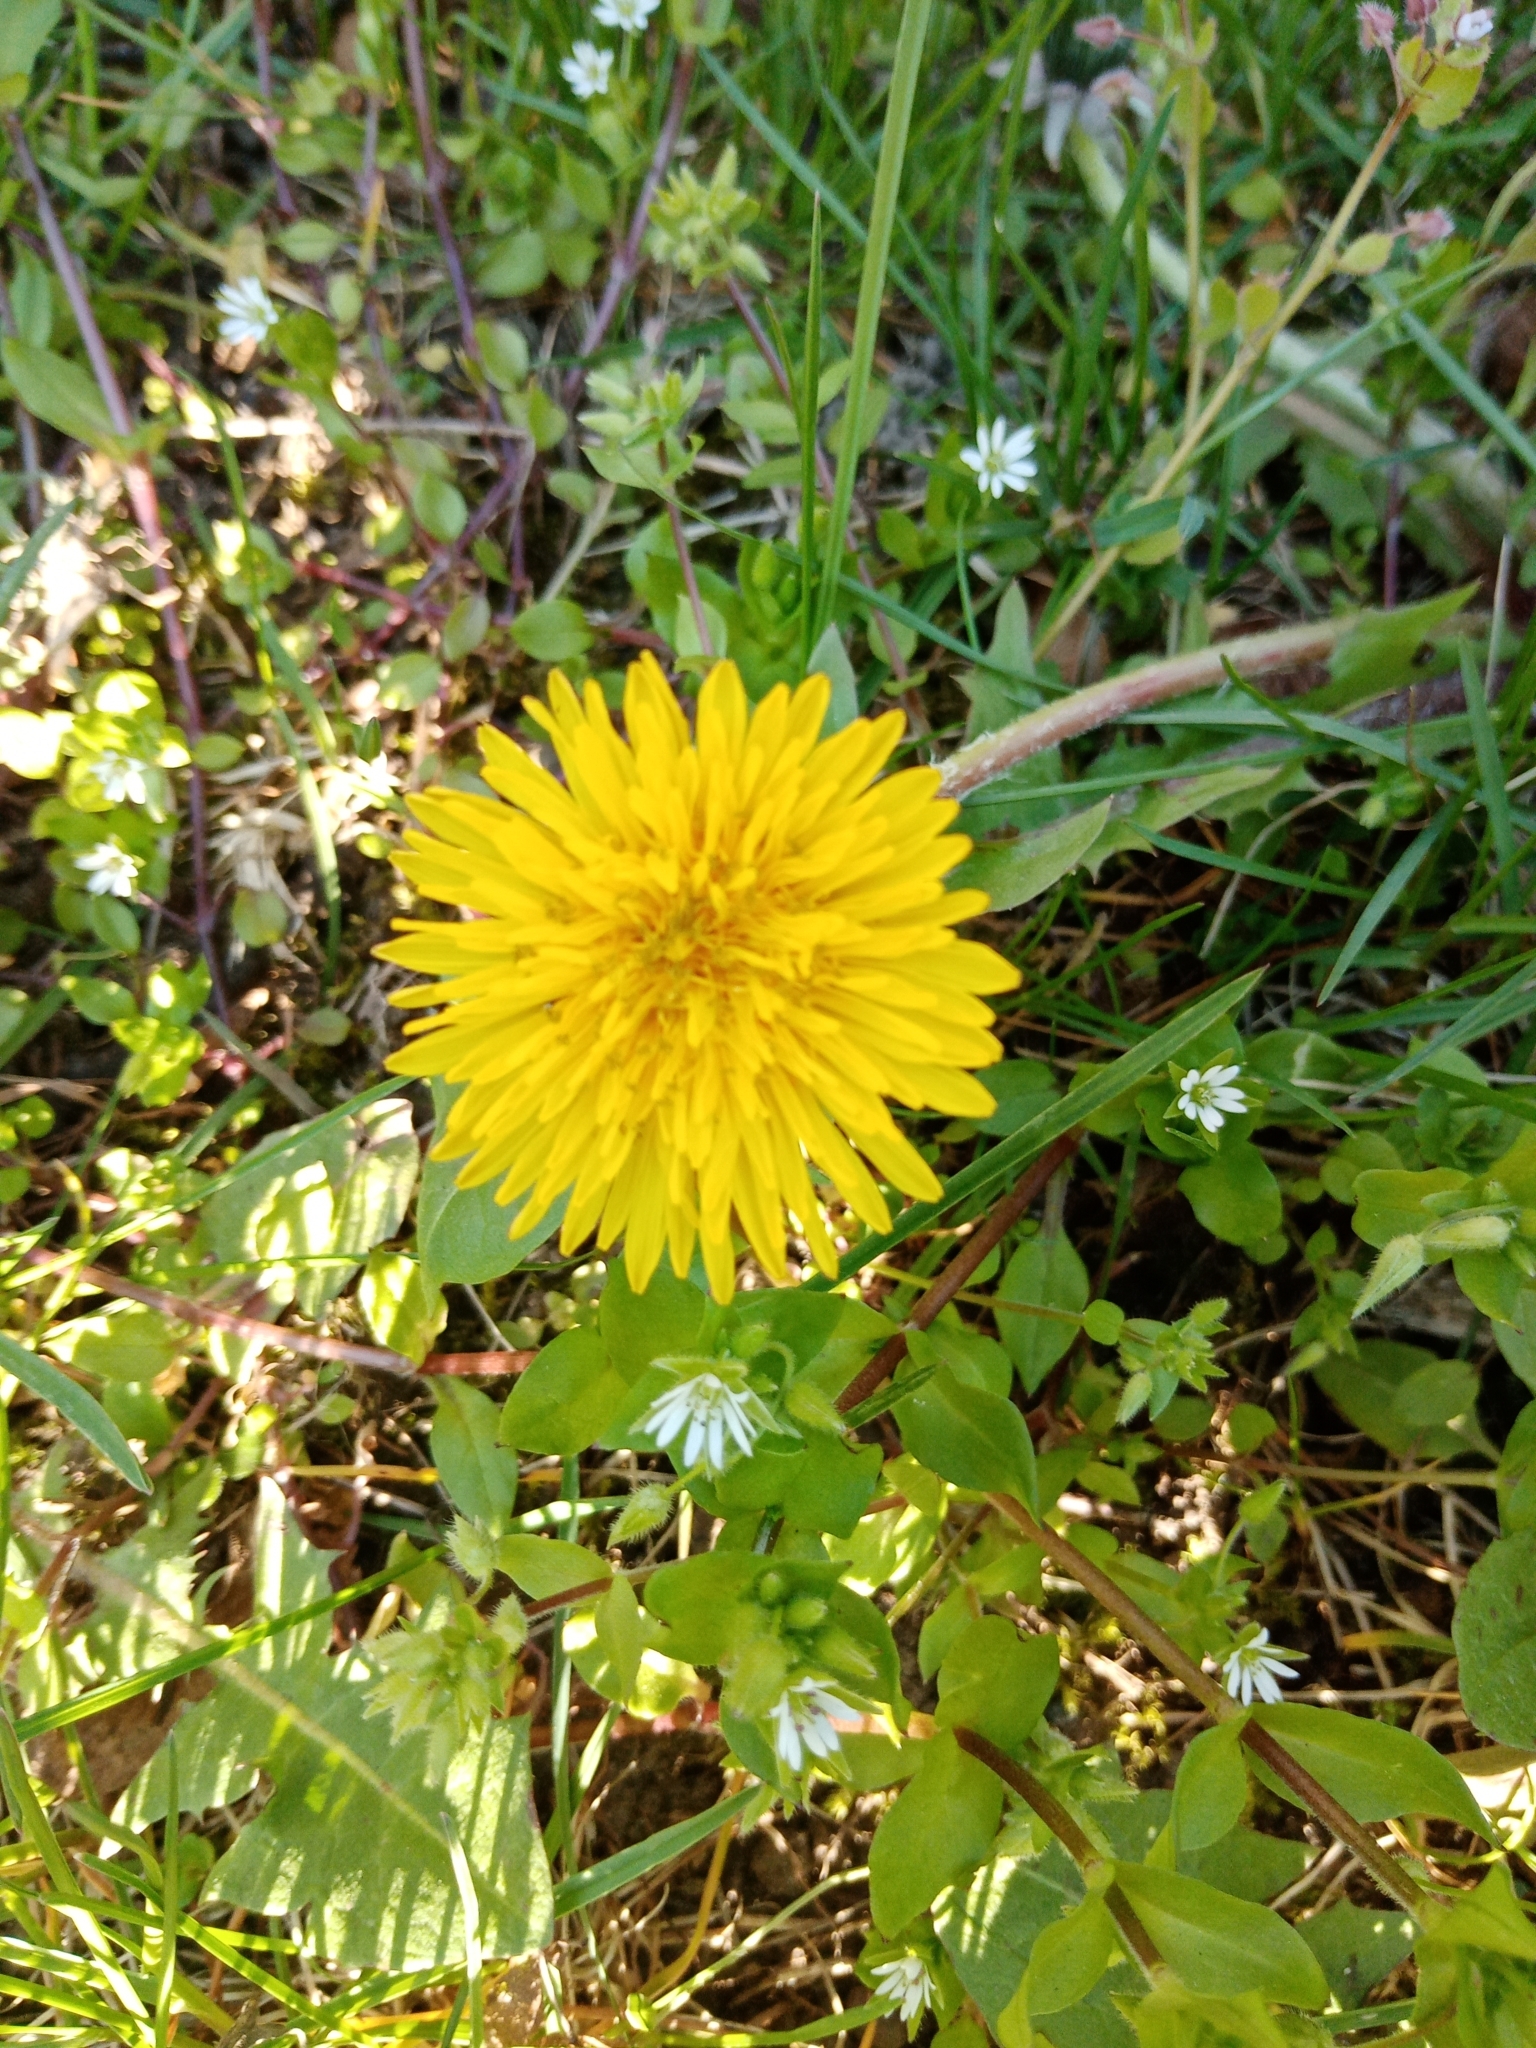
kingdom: Plantae
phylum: Tracheophyta
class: Magnoliopsida
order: Asterales
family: Asteraceae
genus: Taraxacum
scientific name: Taraxacum officinale
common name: Common dandelion
